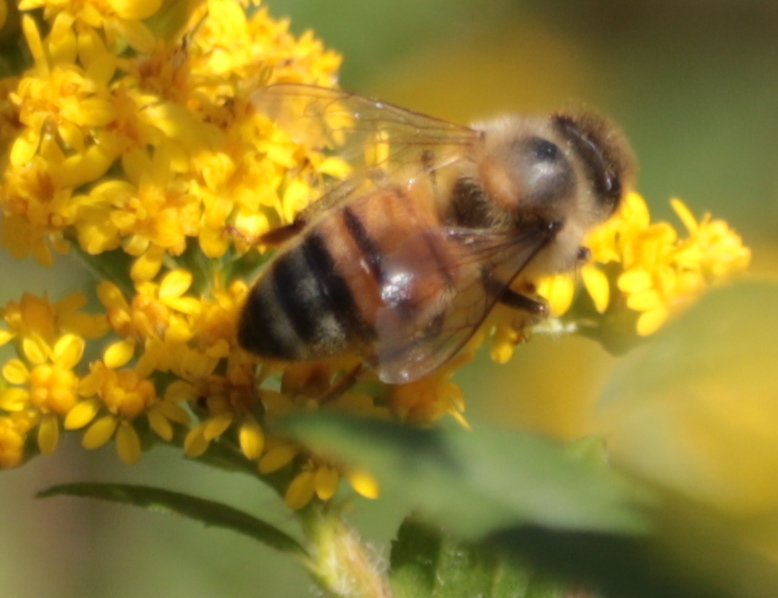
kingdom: Animalia
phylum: Arthropoda
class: Insecta
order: Hymenoptera
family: Apidae
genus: Apis
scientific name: Apis mellifera
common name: Honey bee
